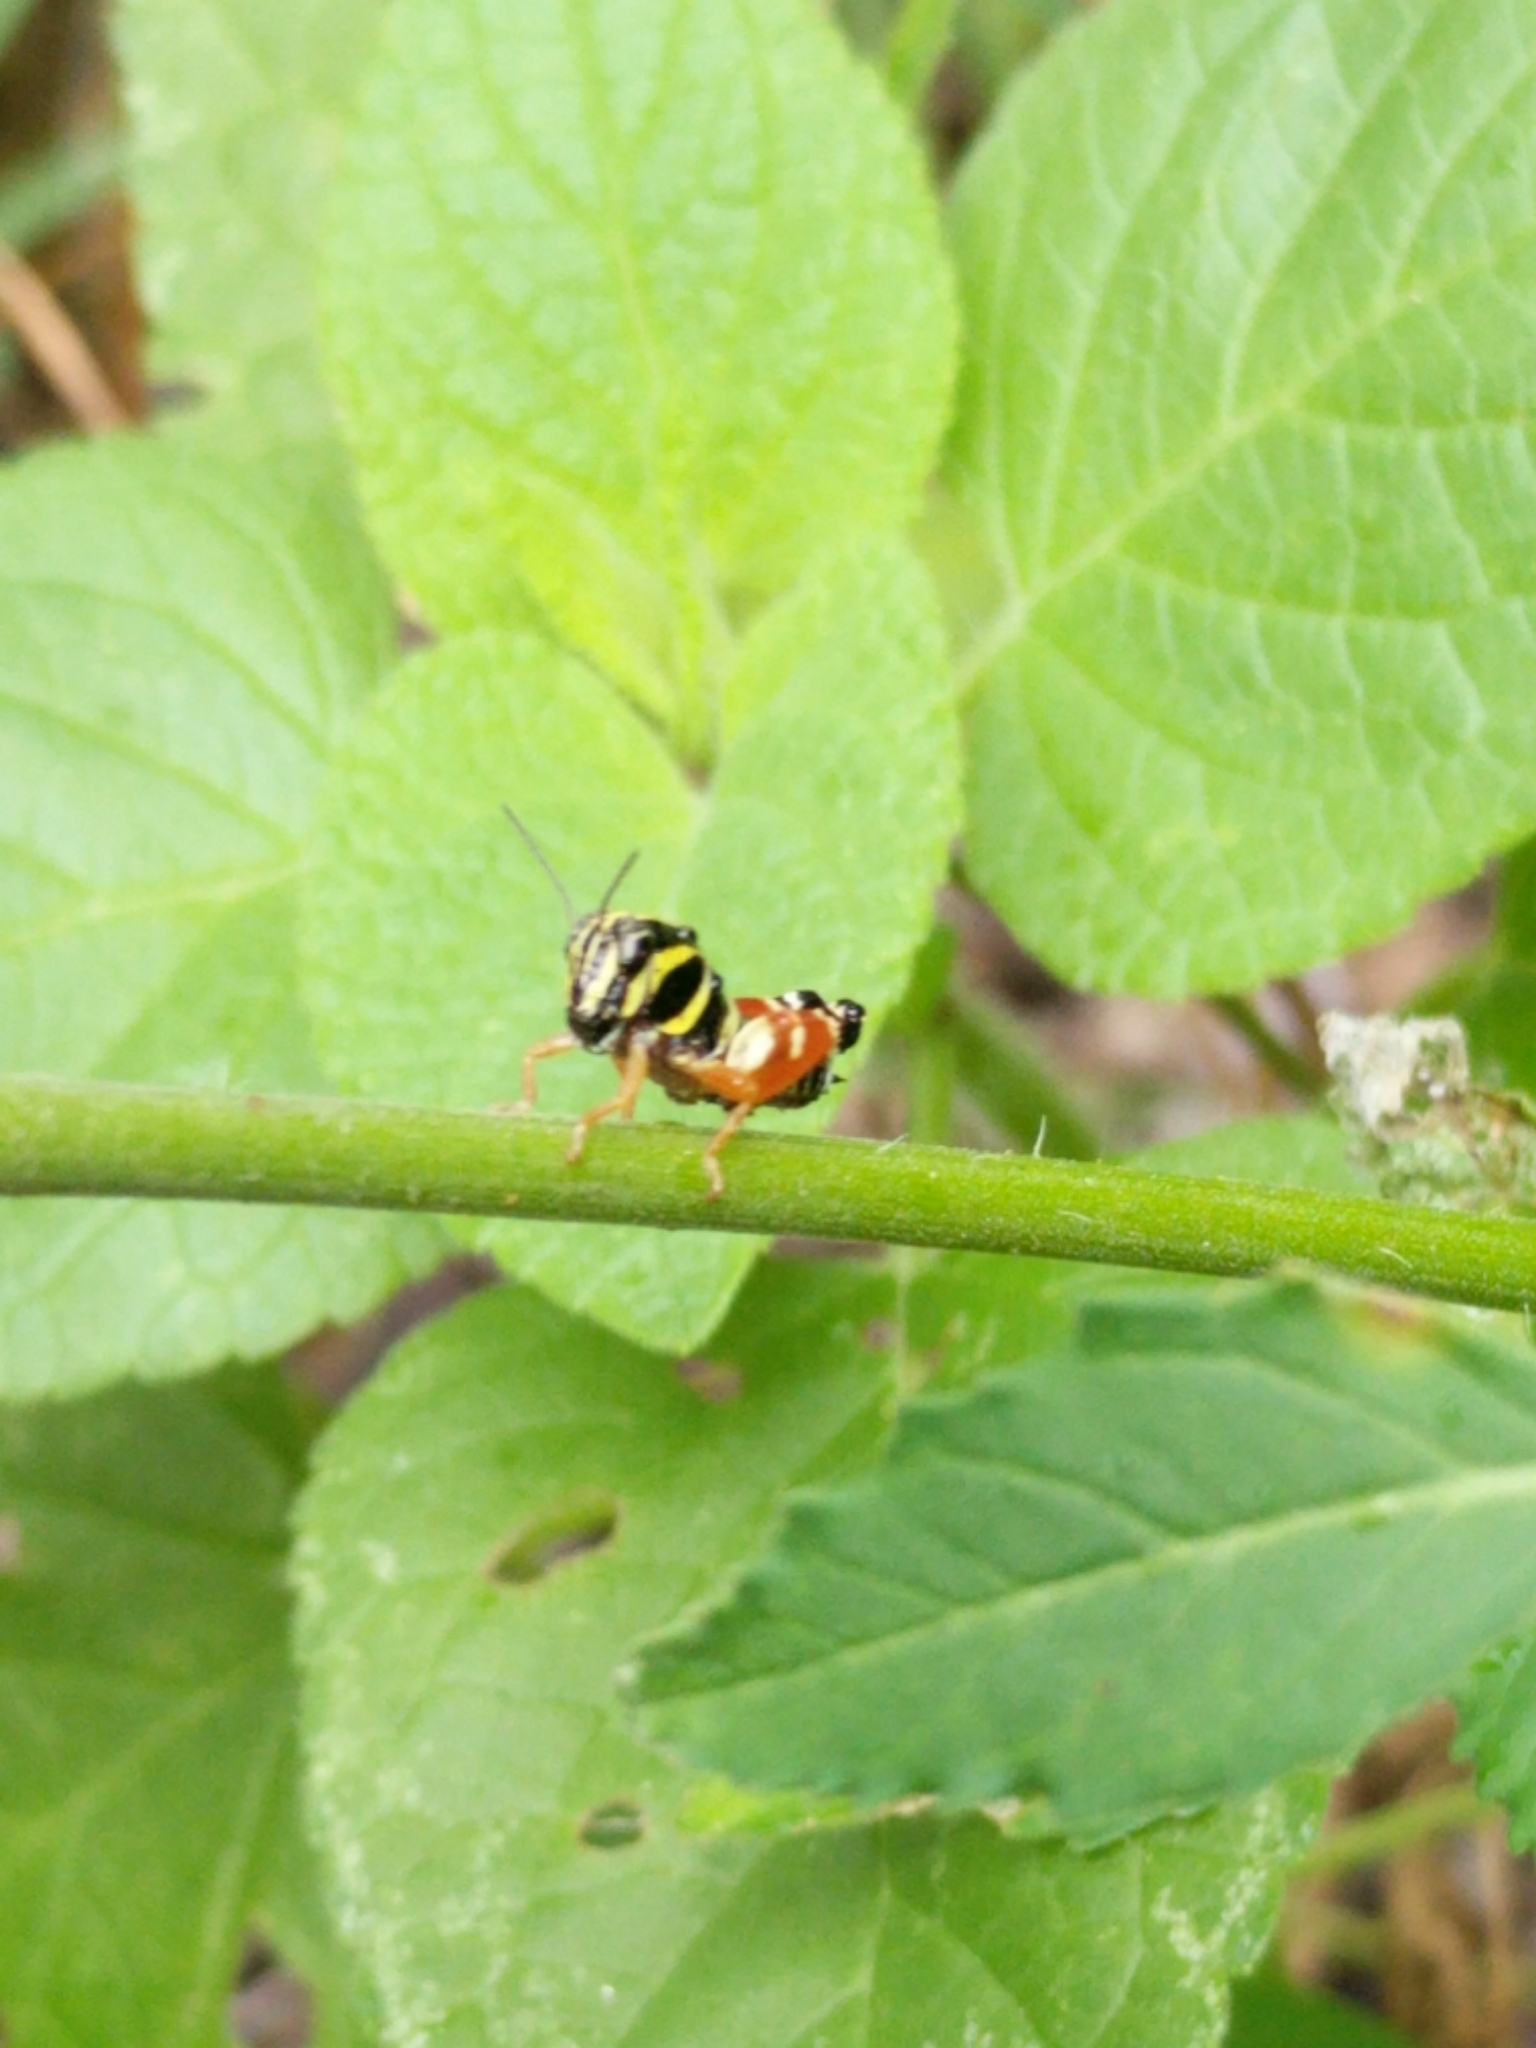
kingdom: Animalia
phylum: Arthropoda
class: Insecta
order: Orthoptera
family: Acrididae
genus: Aidemona
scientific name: Aidemona azteca
